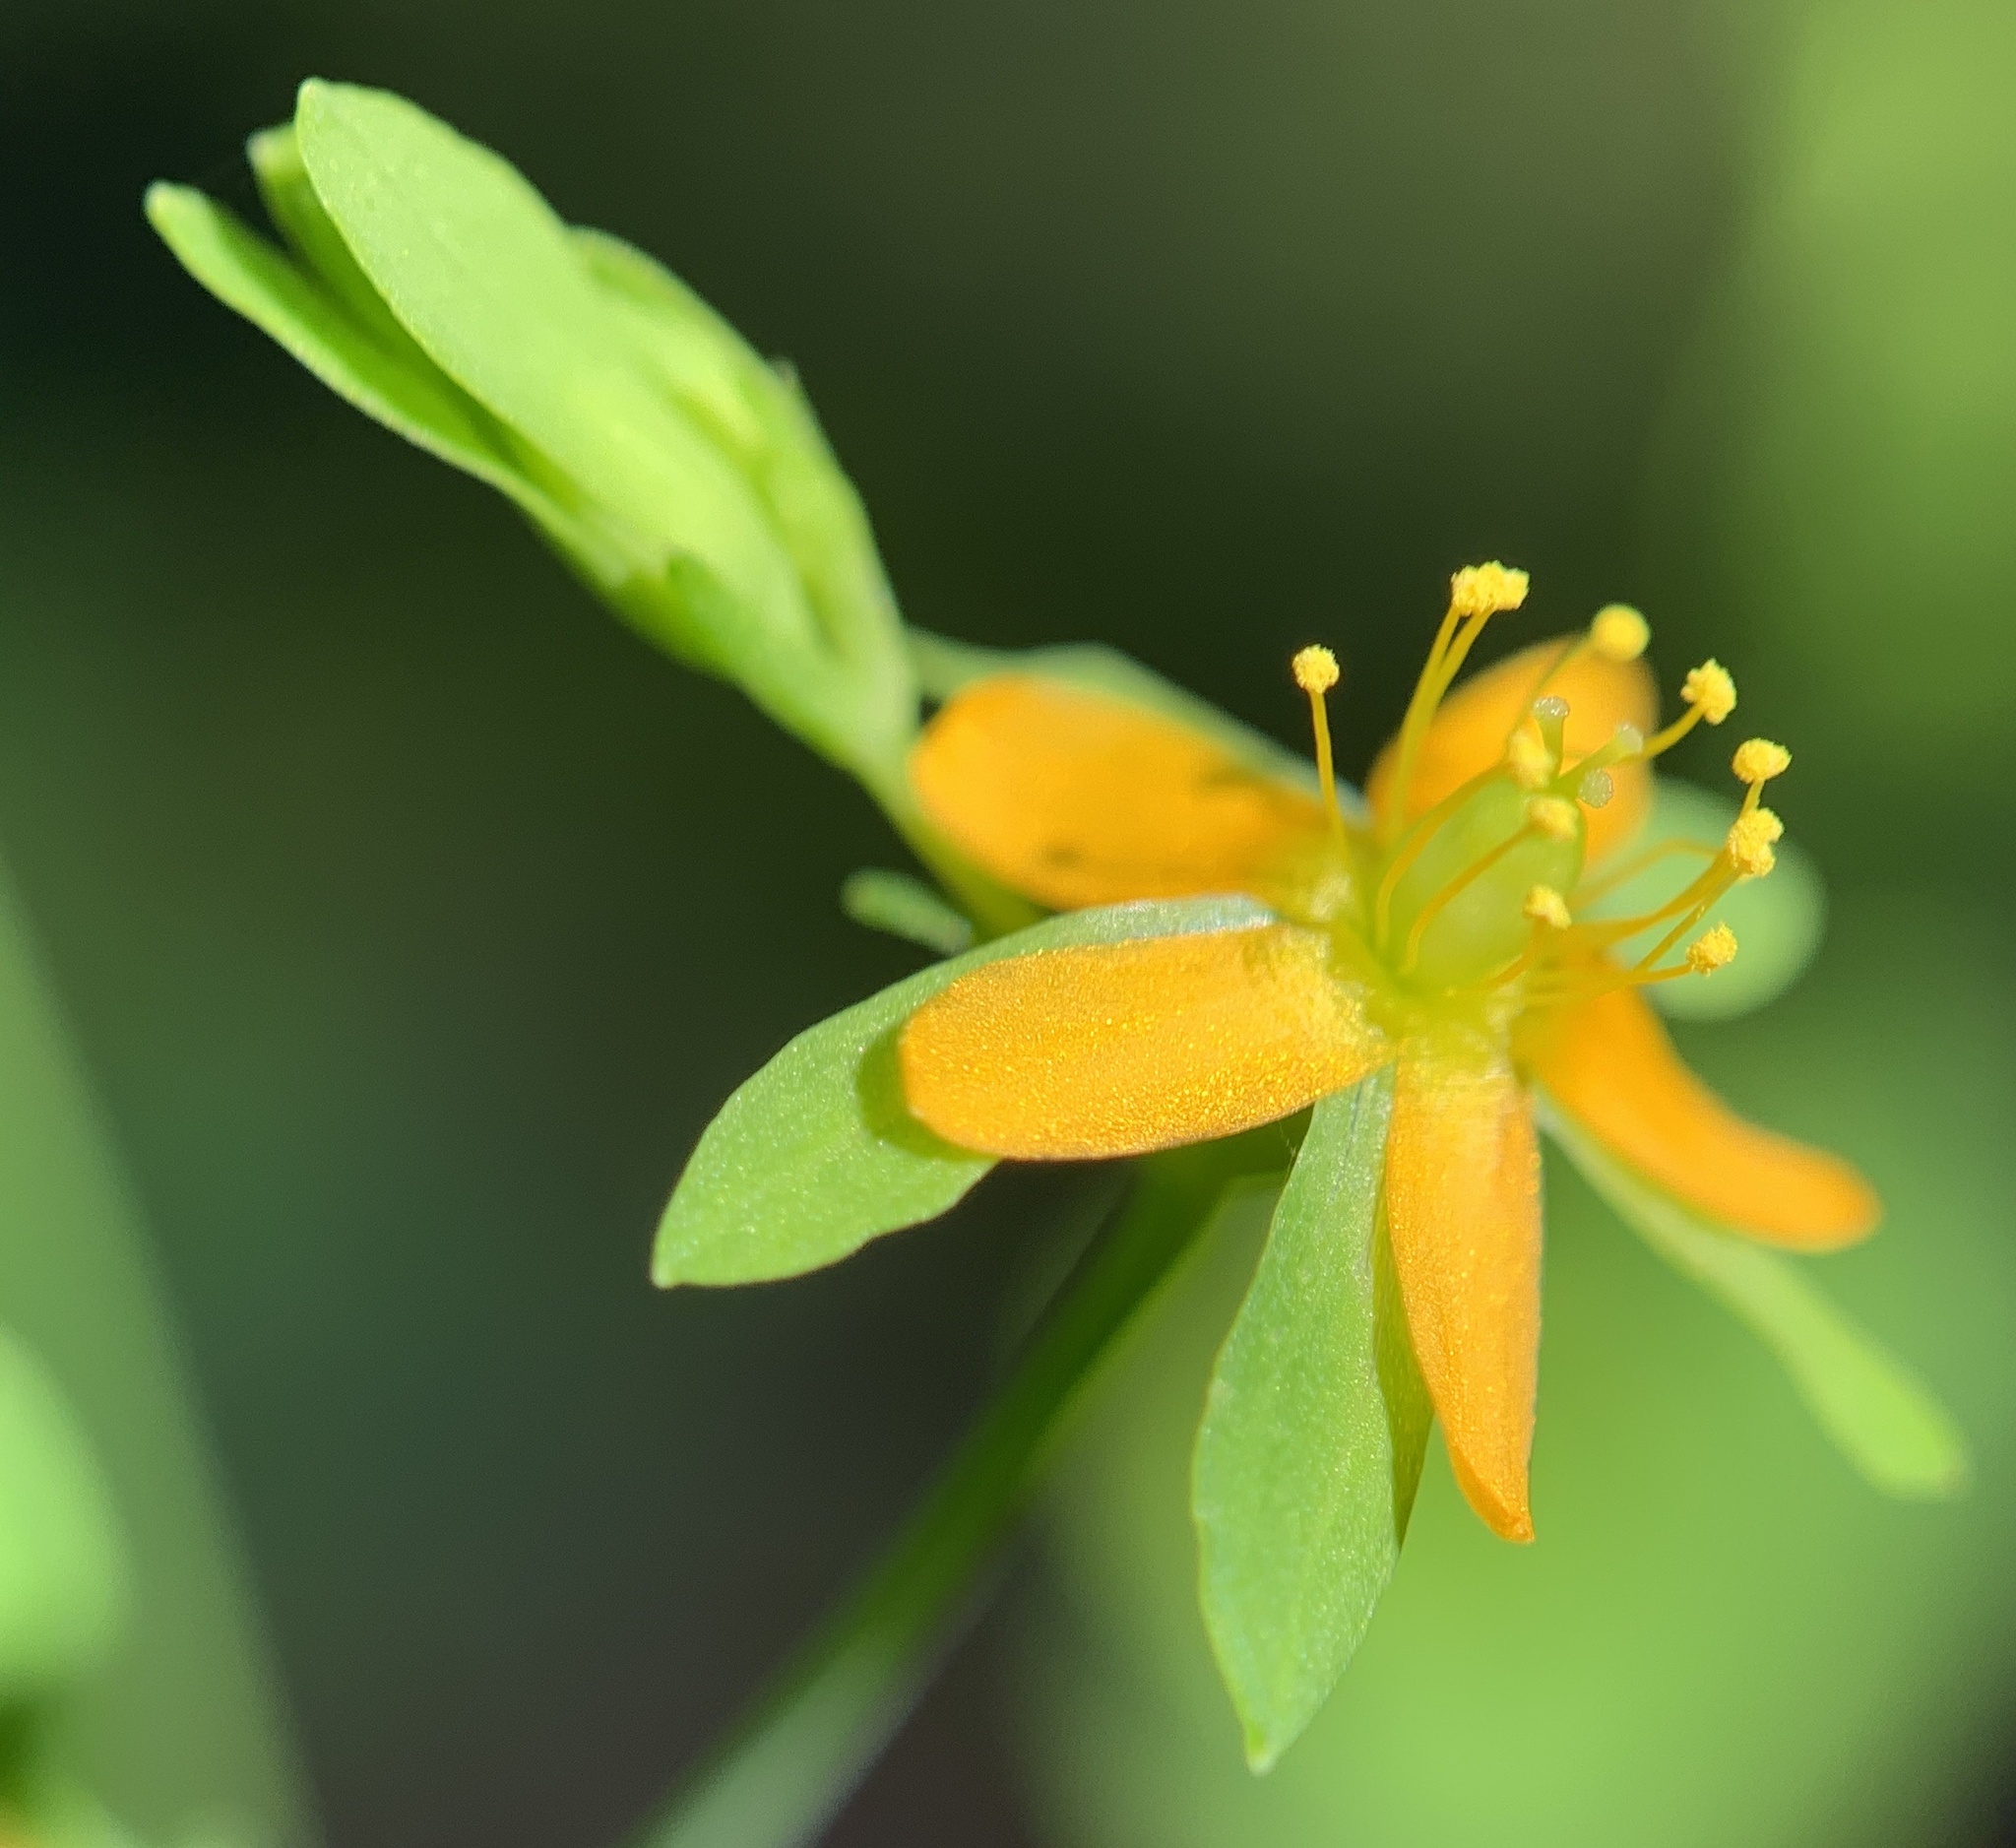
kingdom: Plantae
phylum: Tracheophyta
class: Magnoliopsida
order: Malpighiales
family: Hypericaceae
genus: Hypericum
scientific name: Hypericum mutilum
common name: Dwarf st. john's-wort
